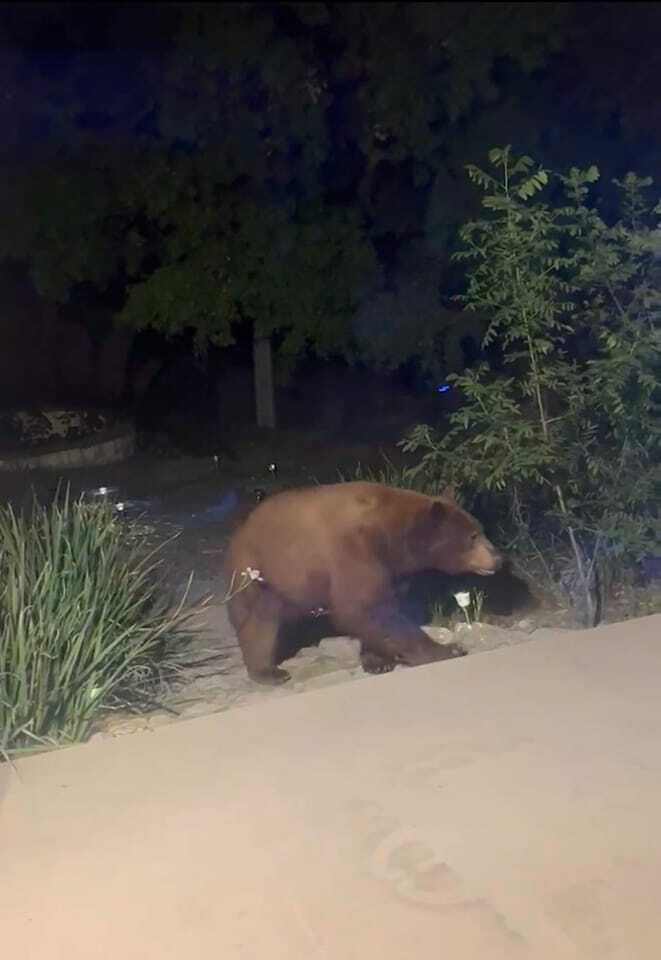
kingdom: Animalia
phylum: Chordata
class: Mammalia
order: Carnivora
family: Ursidae
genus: Ursus
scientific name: Ursus americanus
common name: American black bear
